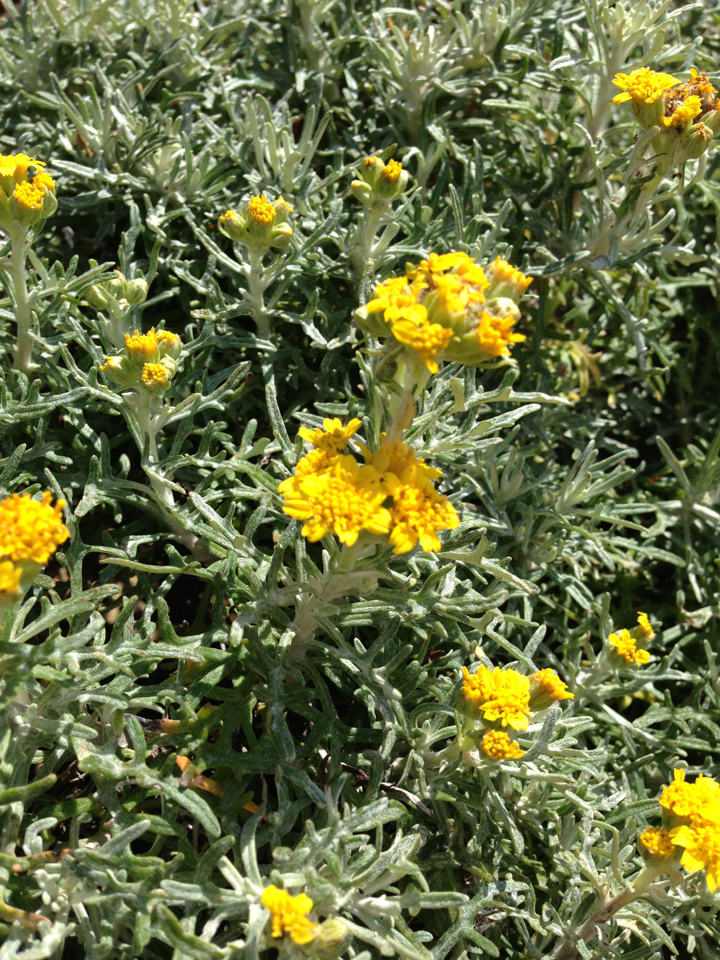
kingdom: Plantae
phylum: Tracheophyta
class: Magnoliopsida
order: Asterales
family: Asteraceae
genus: Eriophyllum
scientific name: Eriophyllum staechadifolium
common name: Lizardtail
